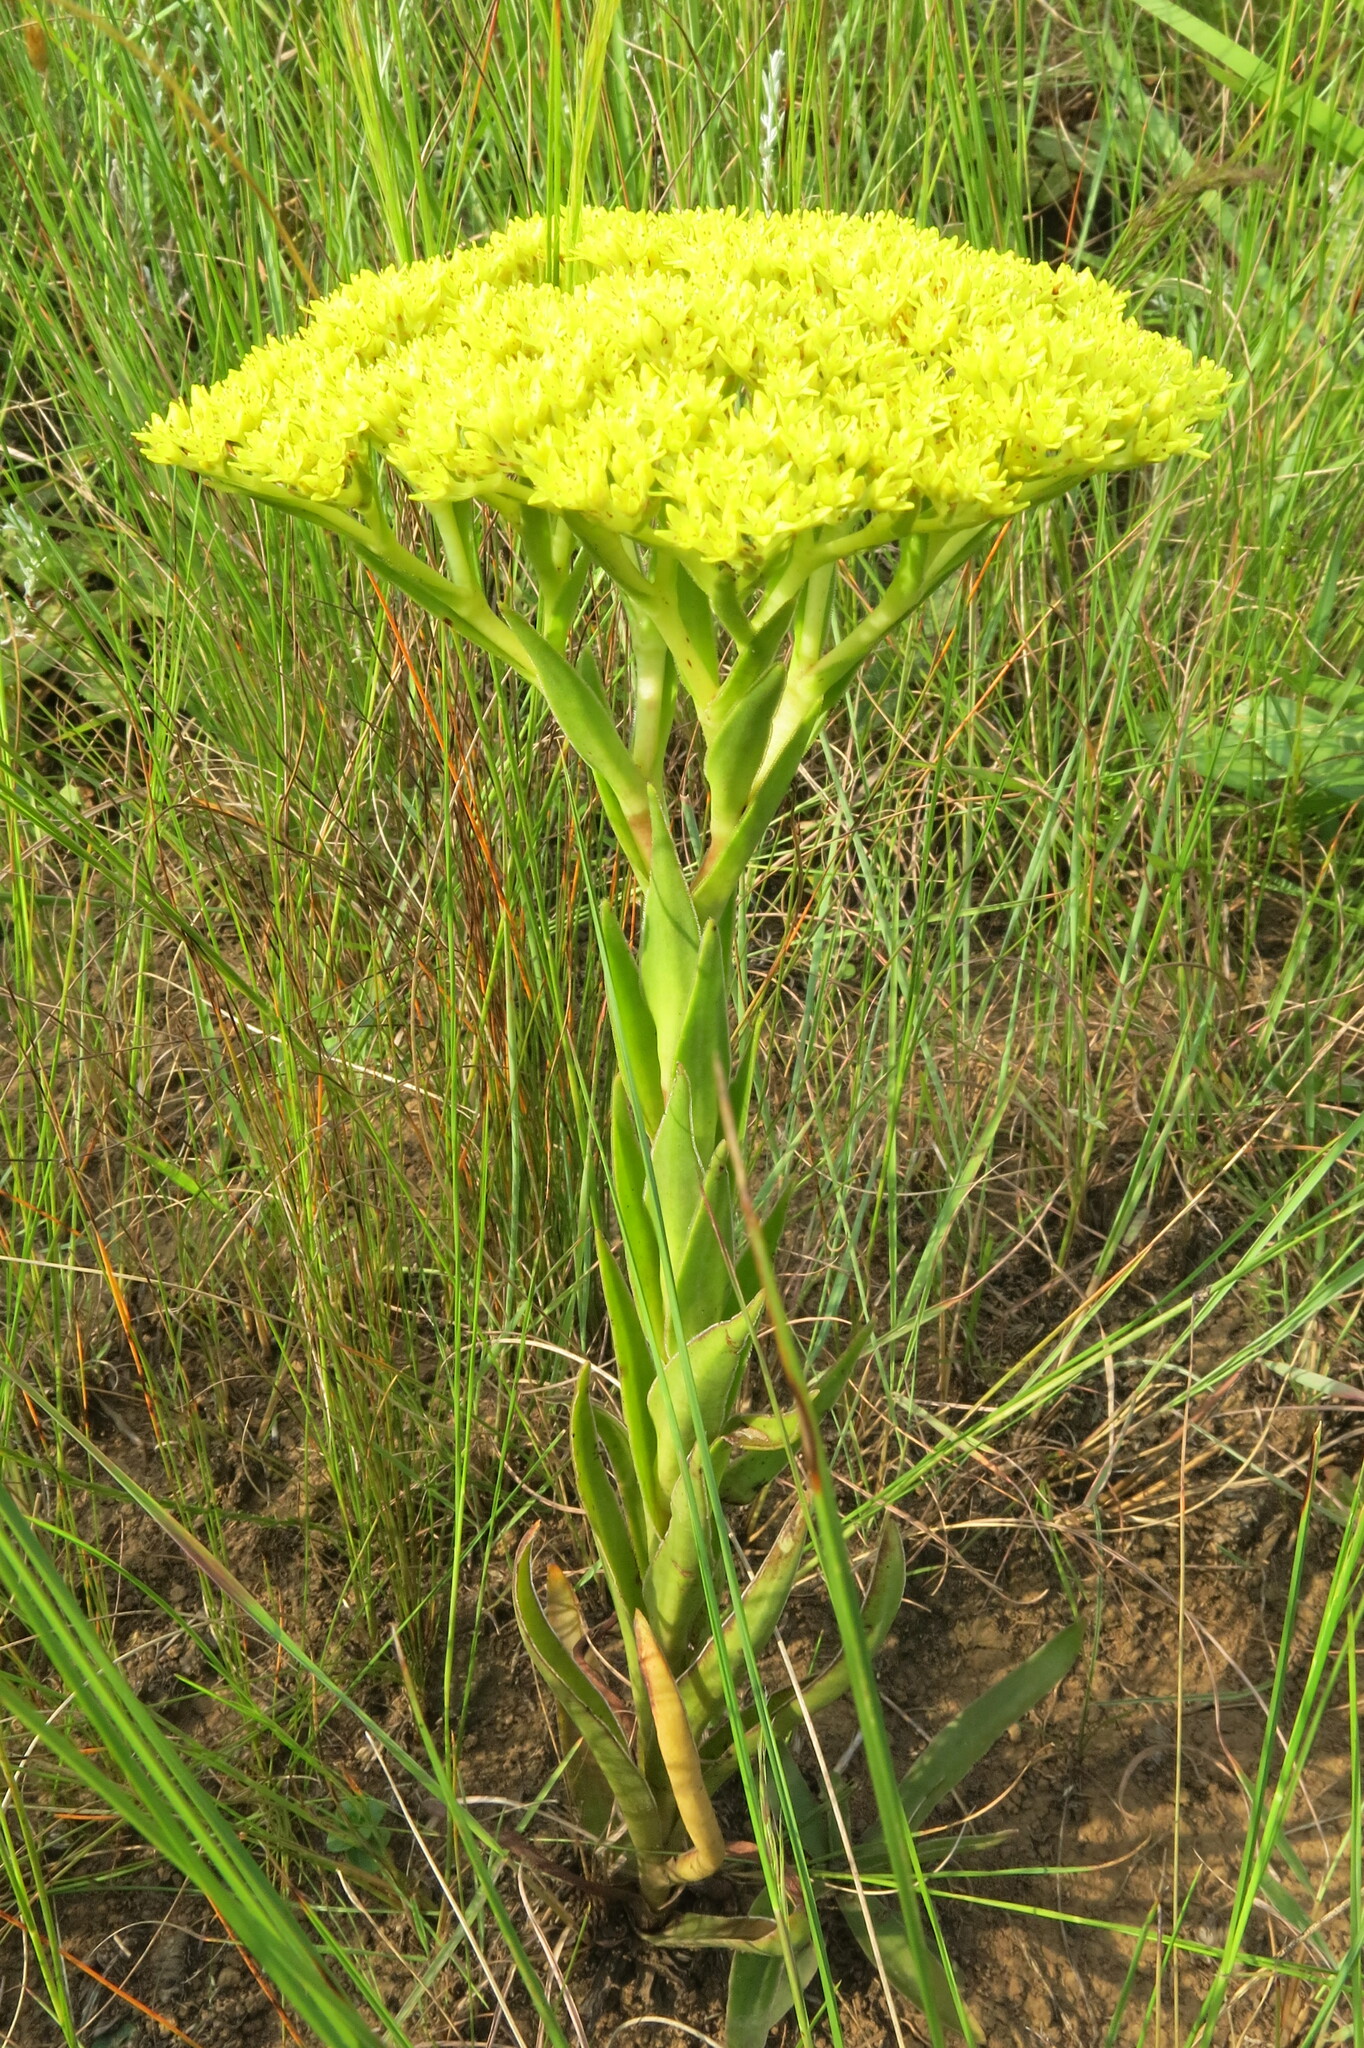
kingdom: Plantae
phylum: Tracheophyta
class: Magnoliopsida
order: Saxifragales
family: Crassulaceae
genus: Crassula
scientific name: Crassula vaginata
